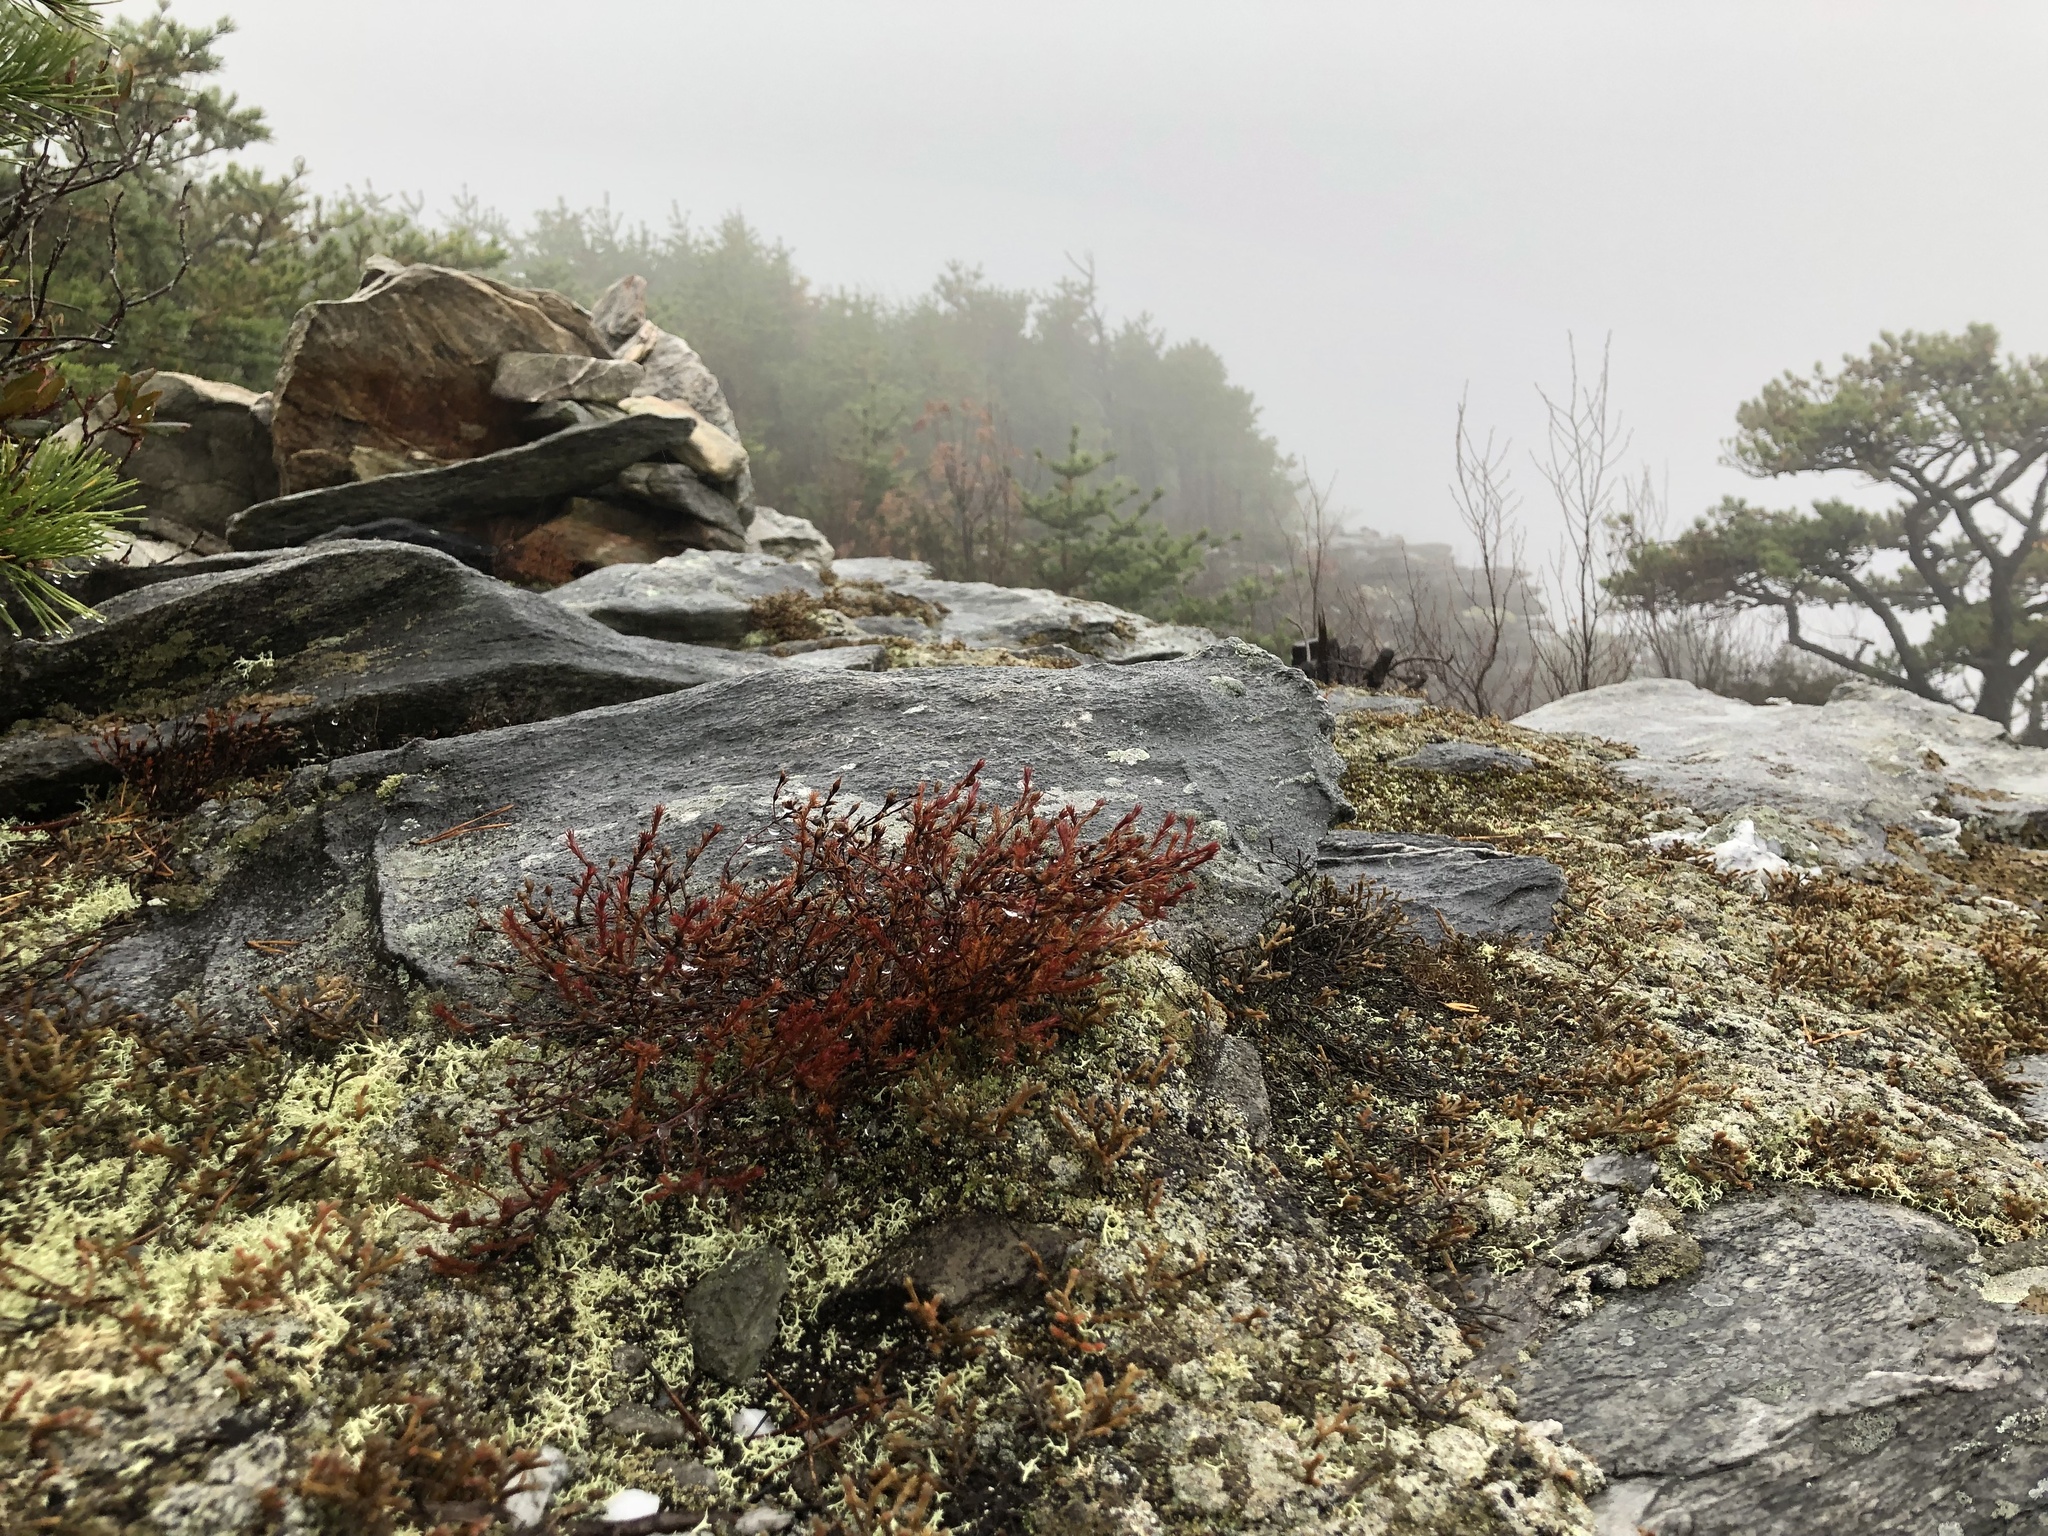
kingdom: Plantae
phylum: Tracheophyta
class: Magnoliopsida
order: Malvales
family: Cistaceae
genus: Hudsonia
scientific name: Hudsonia montana
